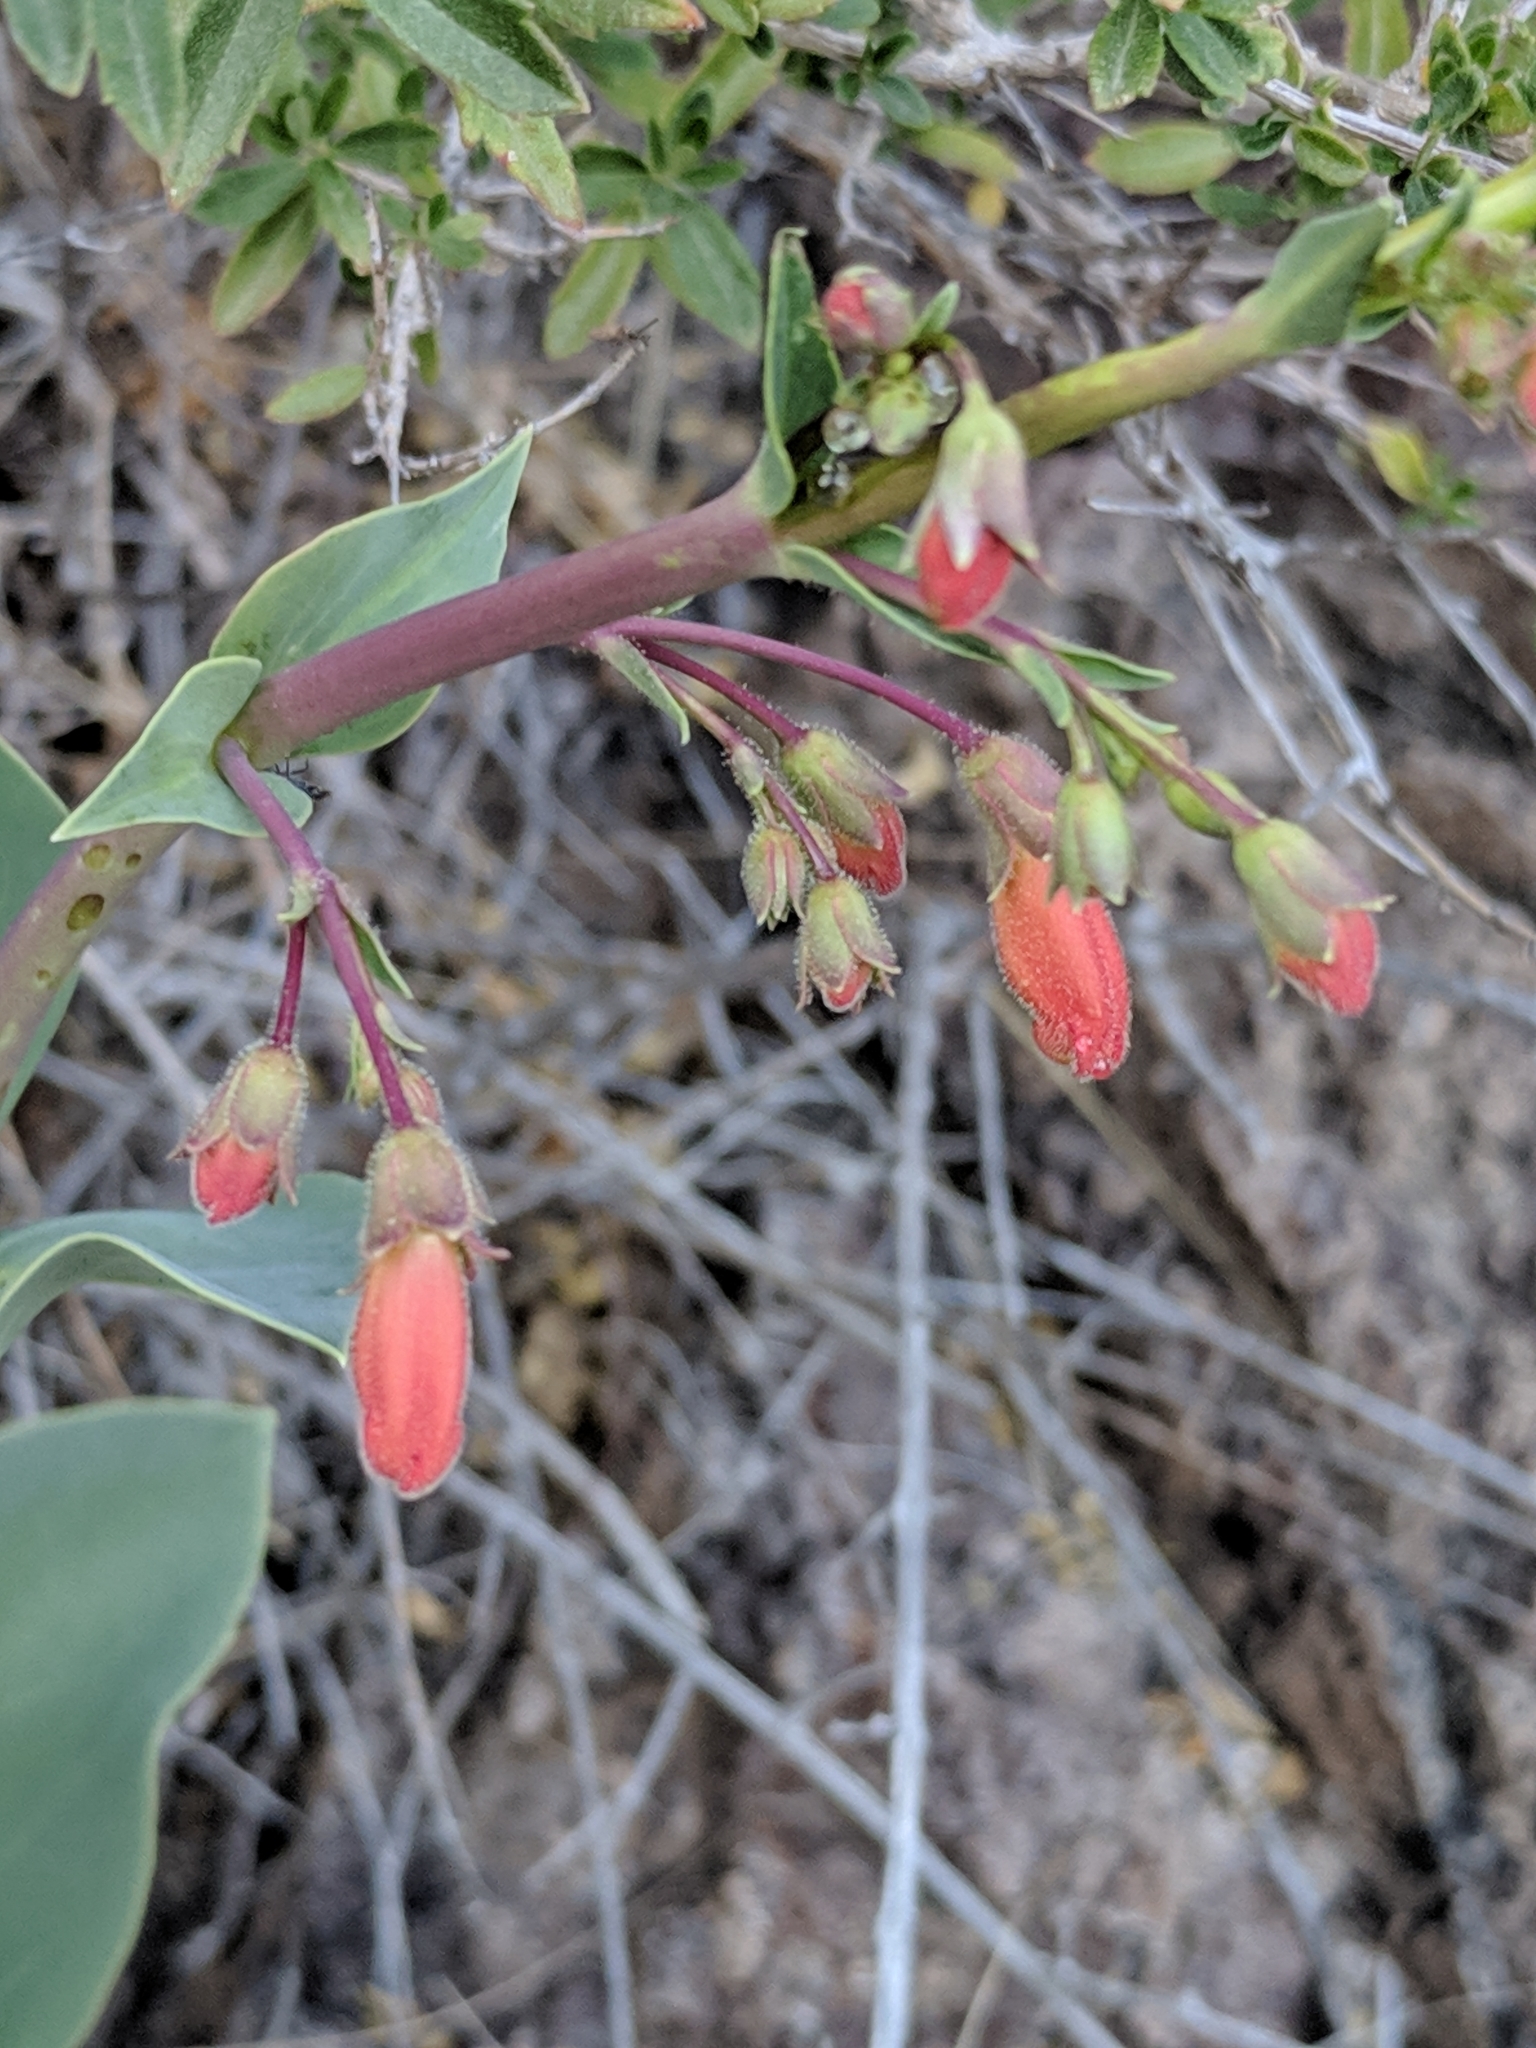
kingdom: Plantae
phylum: Tracheophyta
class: Magnoliopsida
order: Lamiales
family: Plantaginaceae
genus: Penstemon
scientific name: Penstemon havardii
